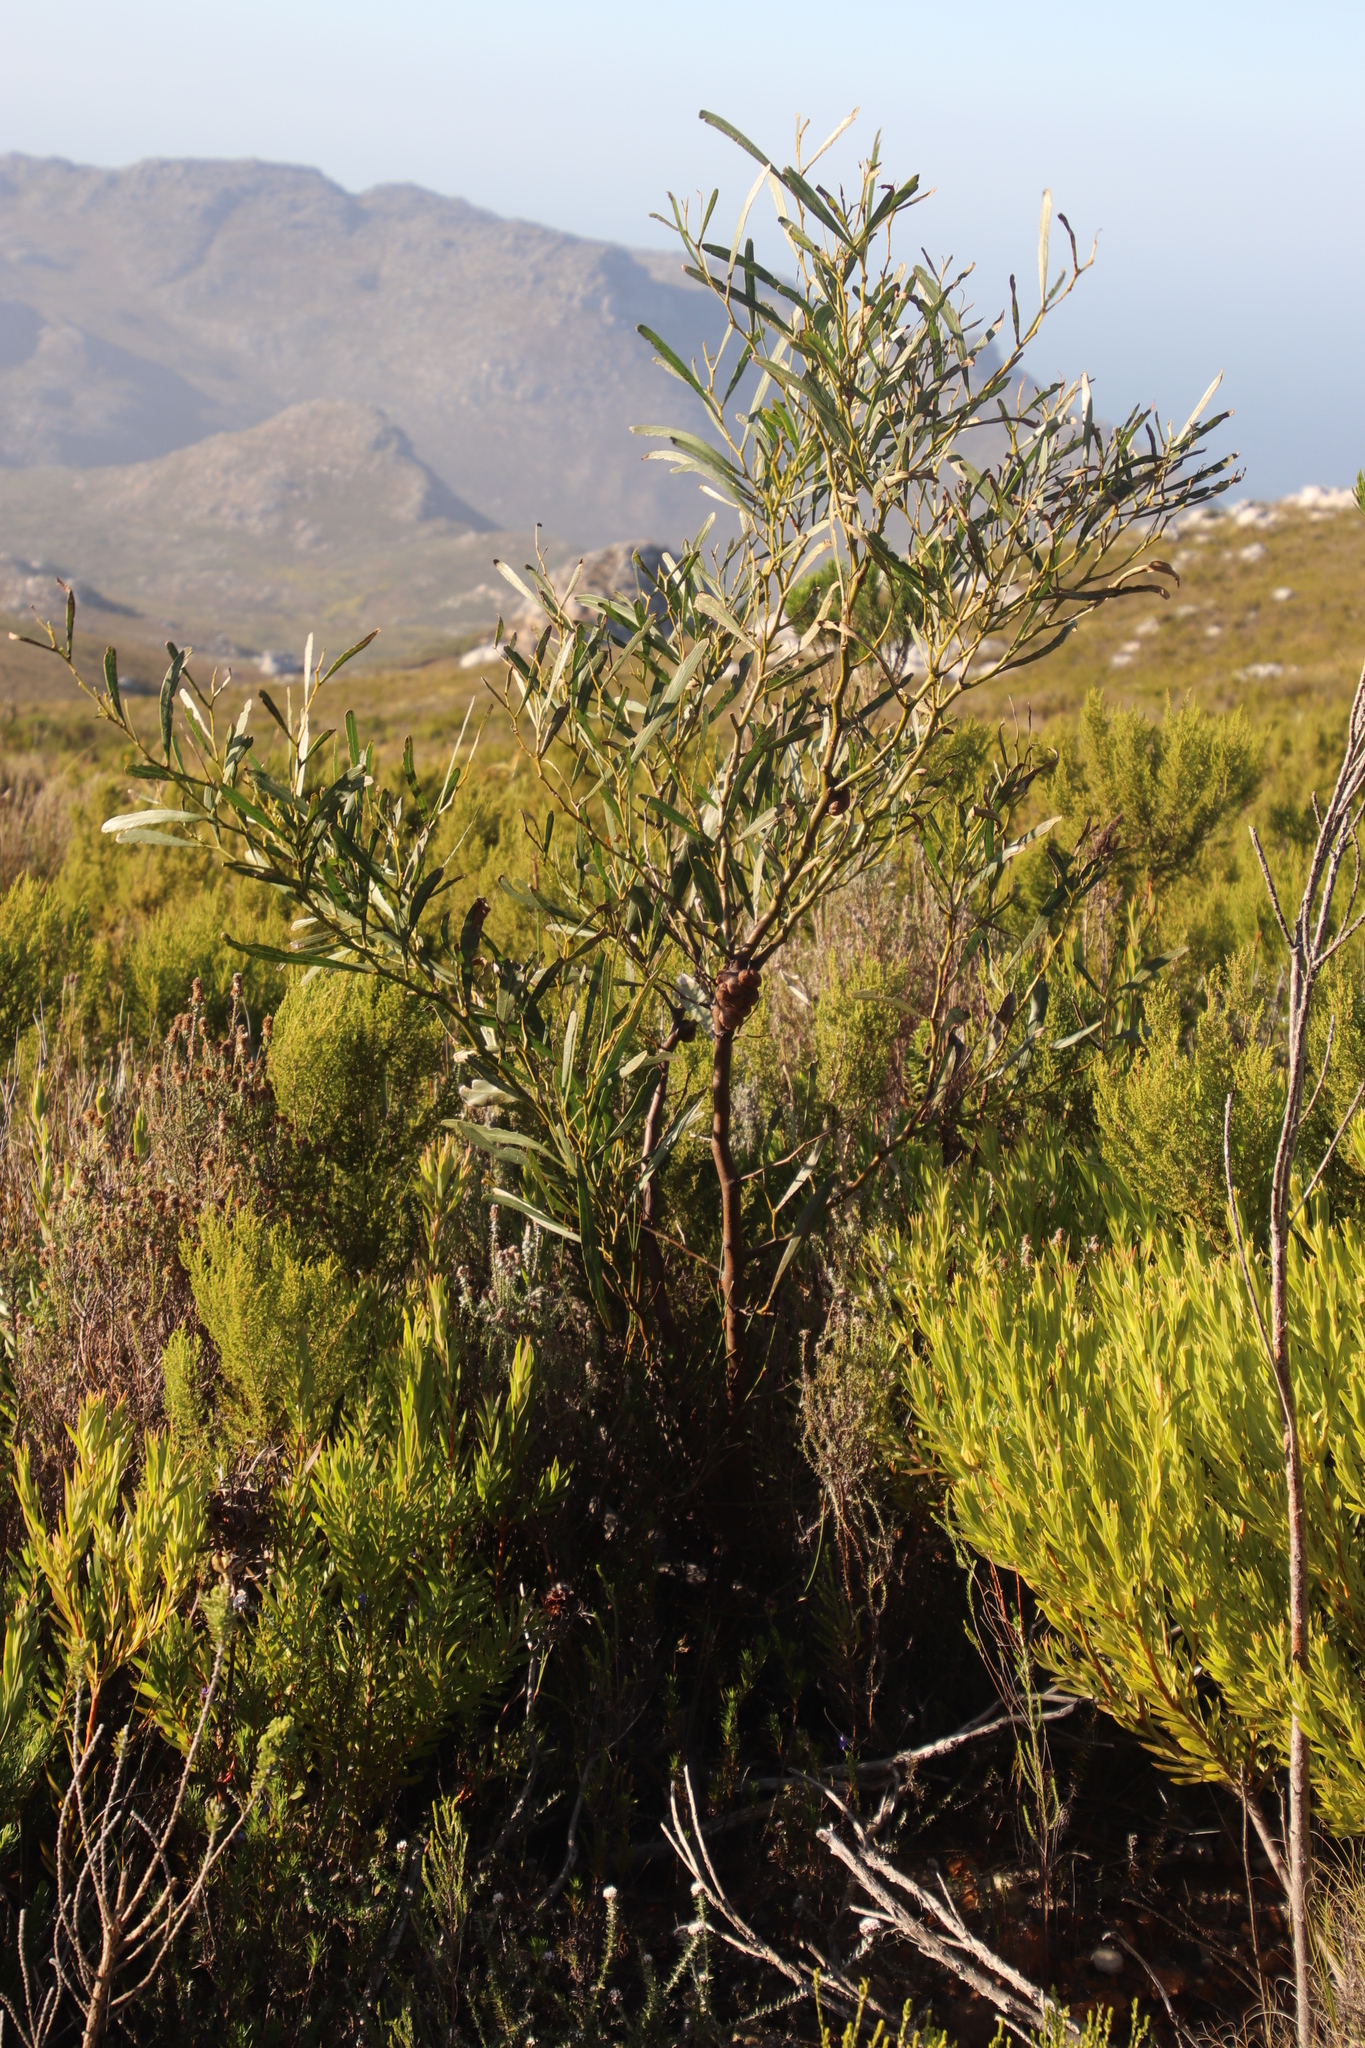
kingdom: Plantae
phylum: Tracheophyta
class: Magnoliopsida
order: Fabales
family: Fabaceae
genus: Acacia
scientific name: Acacia saligna
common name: Orange wattle
